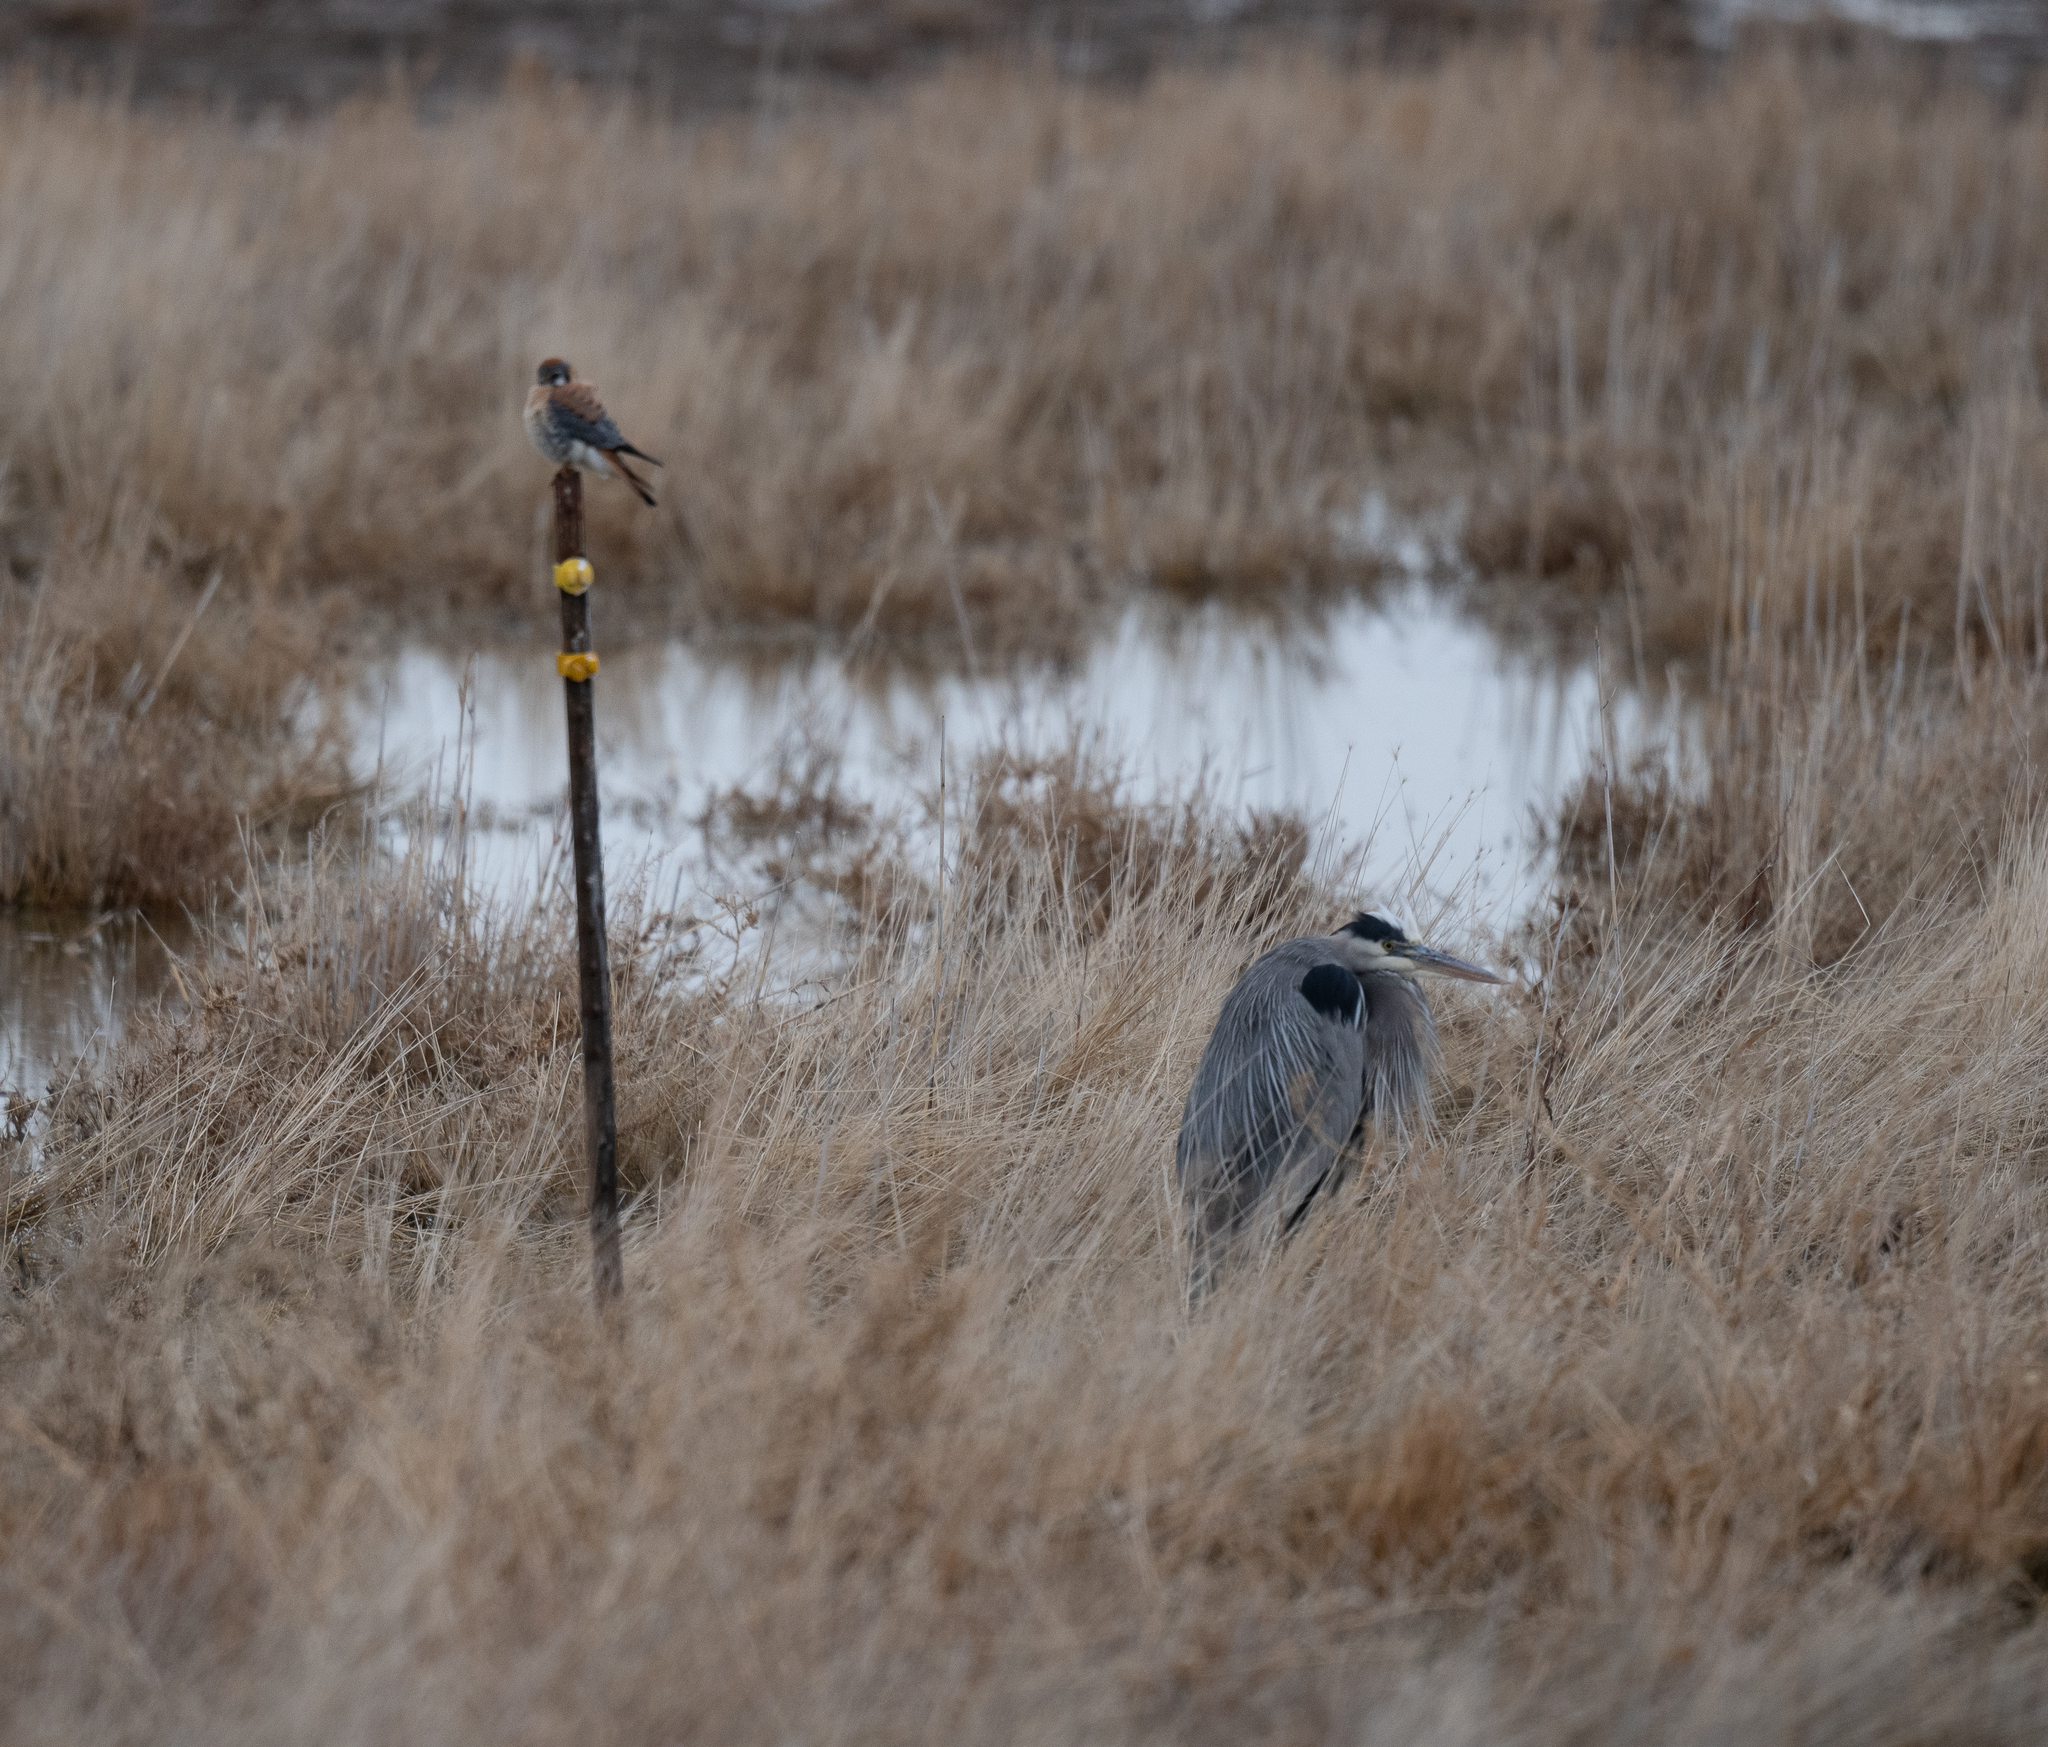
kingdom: Animalia
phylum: Chordata
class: Aves
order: Pelecaniformes
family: Ardeidae
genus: Ardea
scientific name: Ardea herodias
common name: Great blue heron
